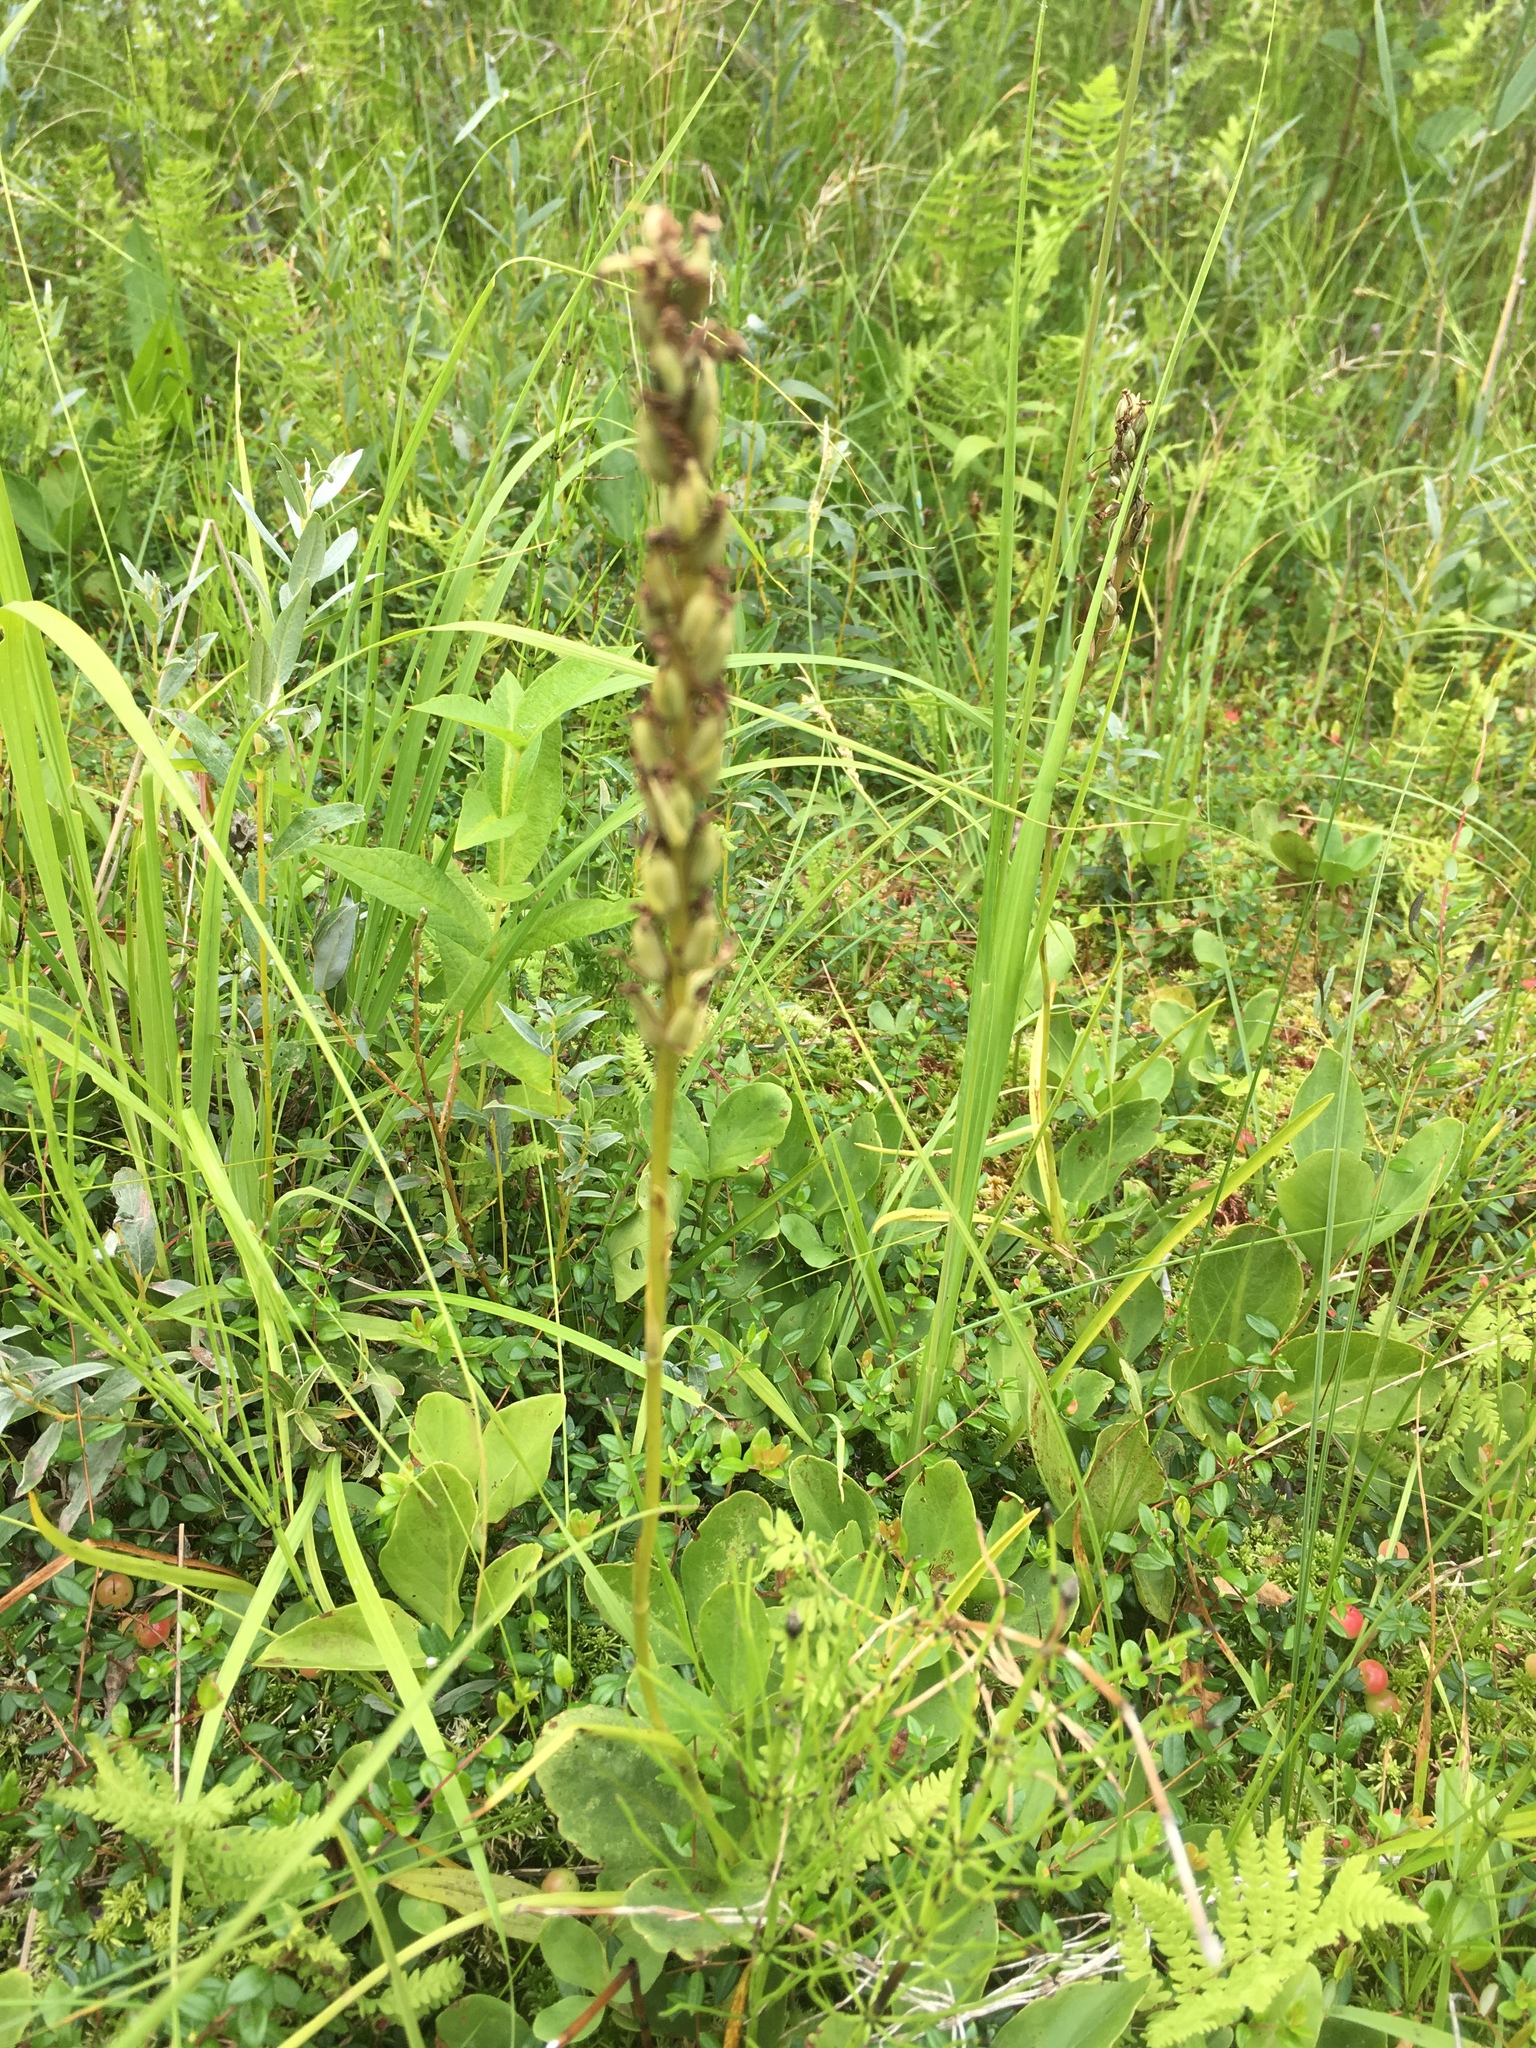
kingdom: Plantae
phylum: Tracheophyta
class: Liliopsida
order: Asparagales
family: Orchidaceae
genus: Gymnadenia
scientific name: Gymnadenia conopsea
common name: Fragrant orchid
